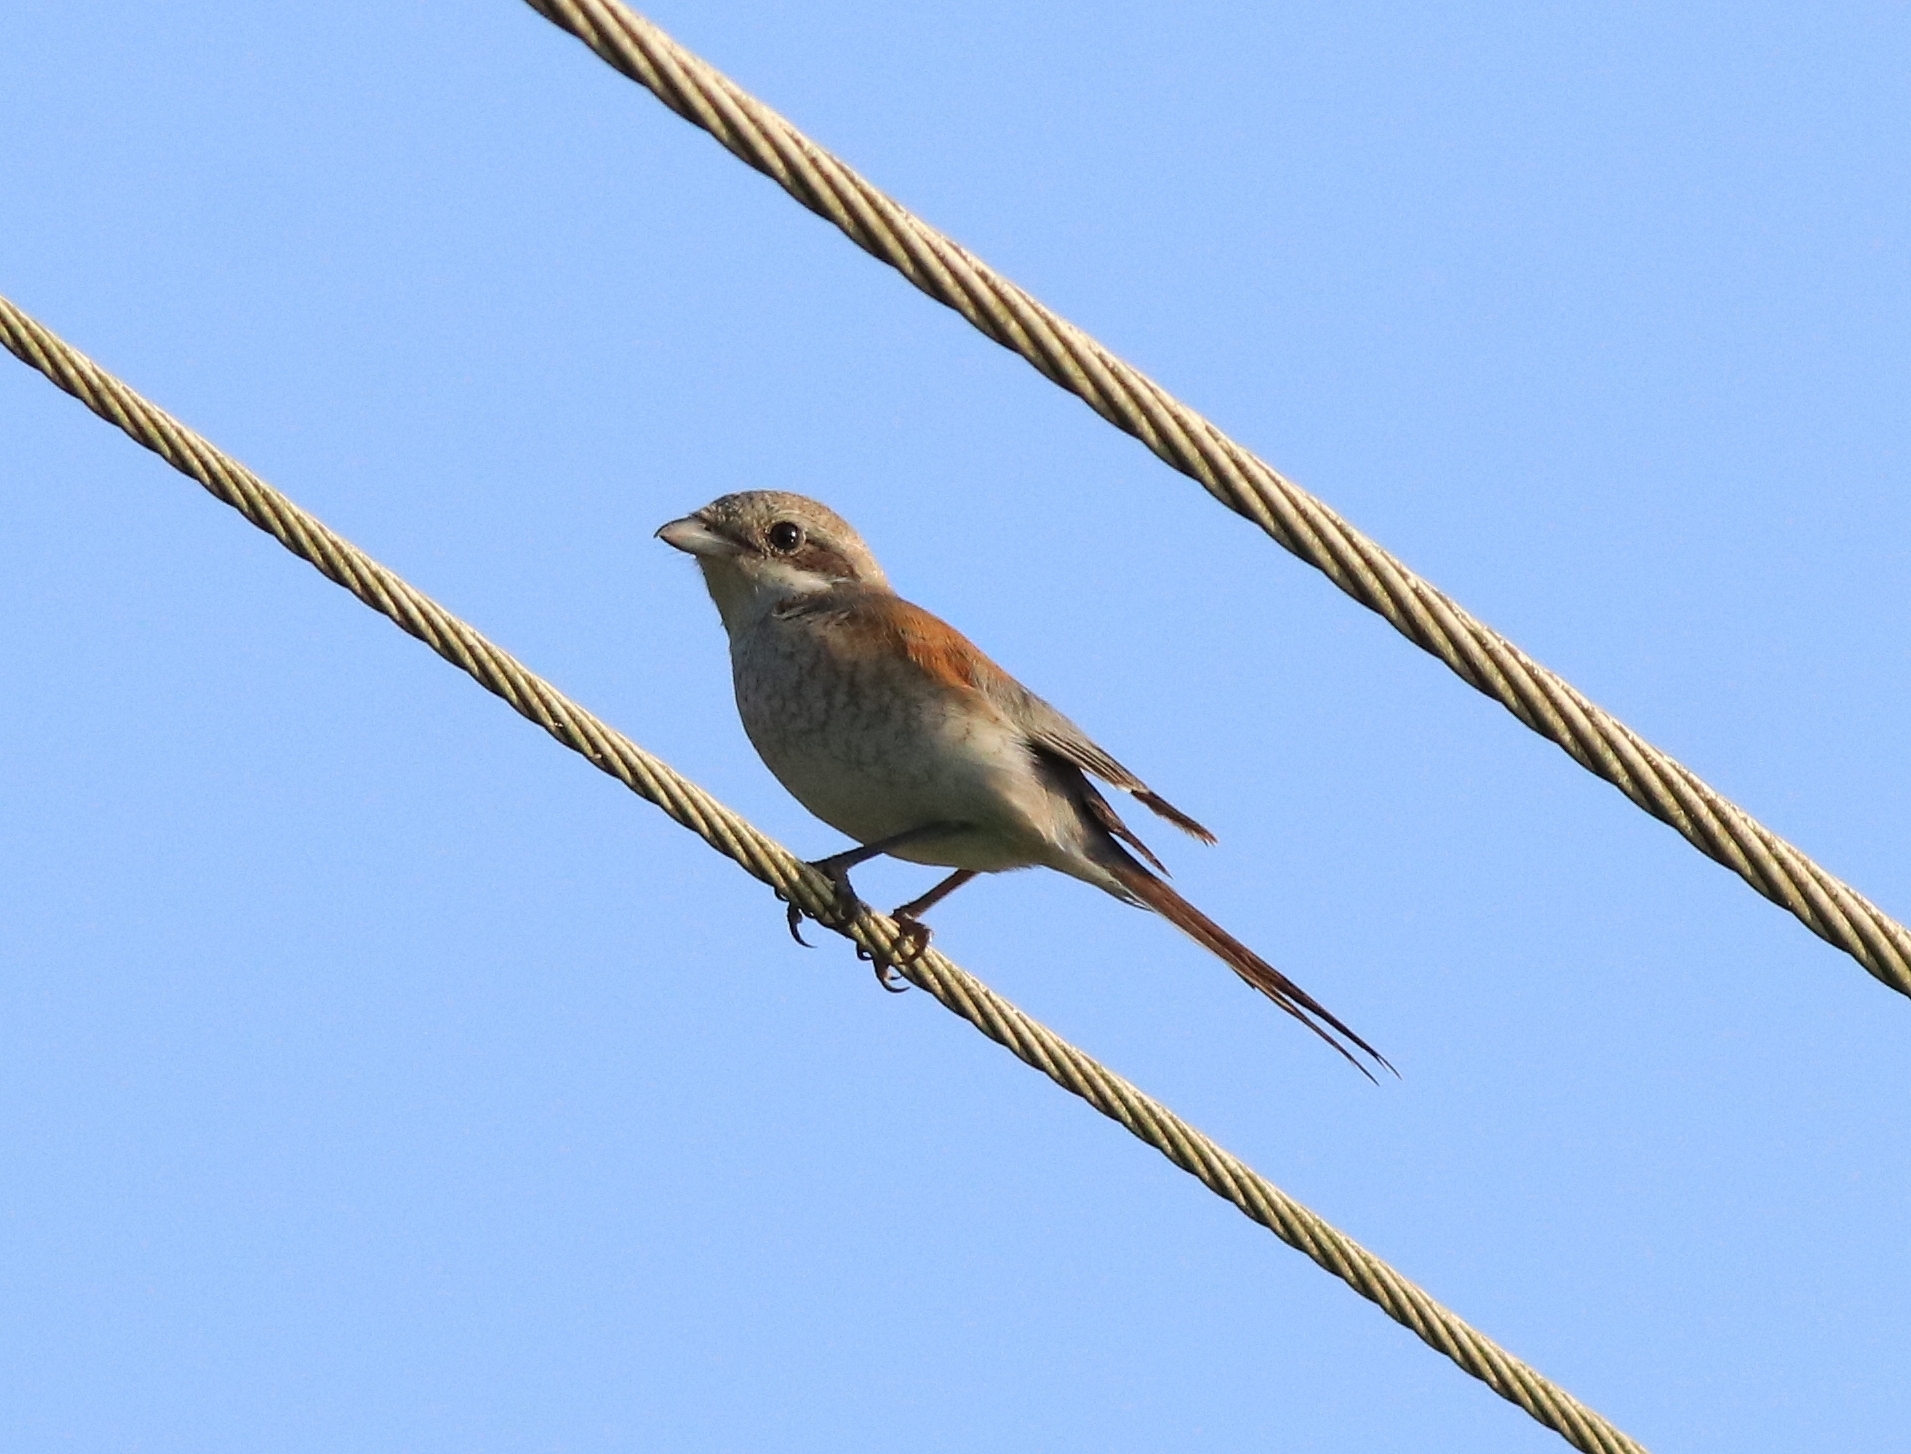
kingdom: Animalia
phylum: Chordata
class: Aves
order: Passeriformes
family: Laniidae
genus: Lanius
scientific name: Lanius vittatus
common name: Bay-backed shrike
